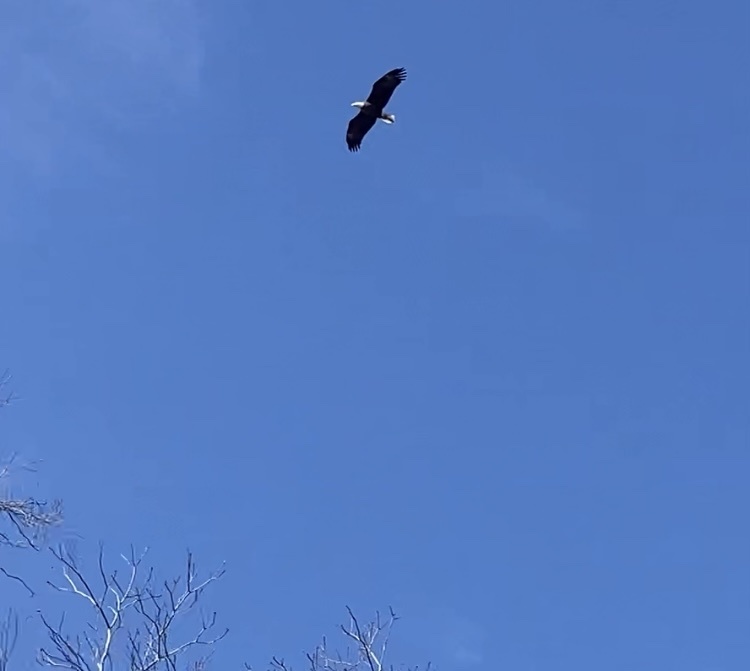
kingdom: Animalia
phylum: Chordata
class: Aves
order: Accipitriformes
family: Accipitridae
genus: Haliaeetus
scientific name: Haliaeetus leucocephalus
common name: Bald eagle
